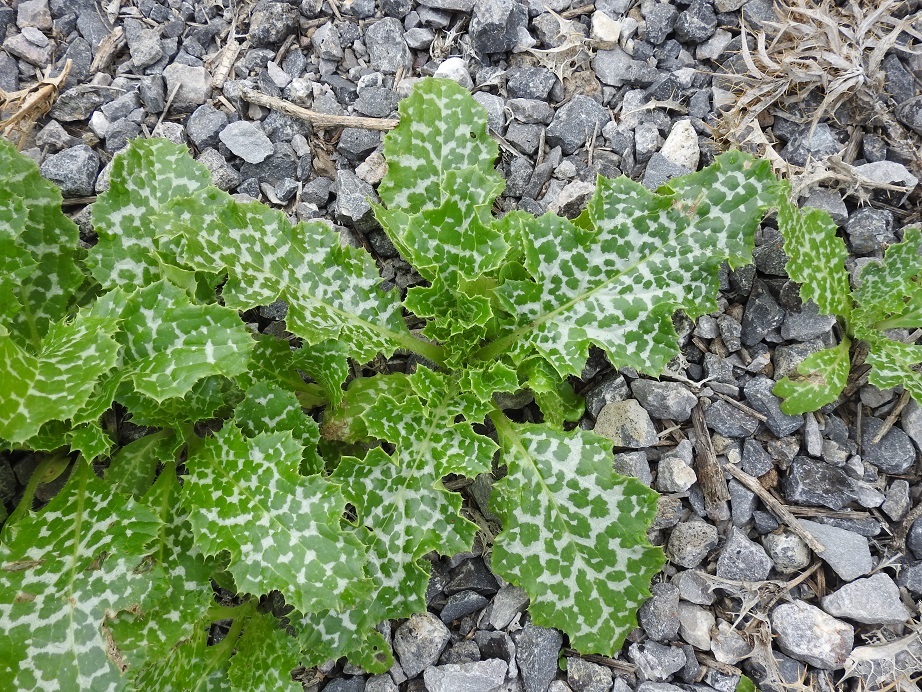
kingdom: Plantae
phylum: Tracheophyta
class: Magnoliopsida
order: Asterales
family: Asteraceae
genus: Silybum
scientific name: Silybum marianum
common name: Milk thistle
